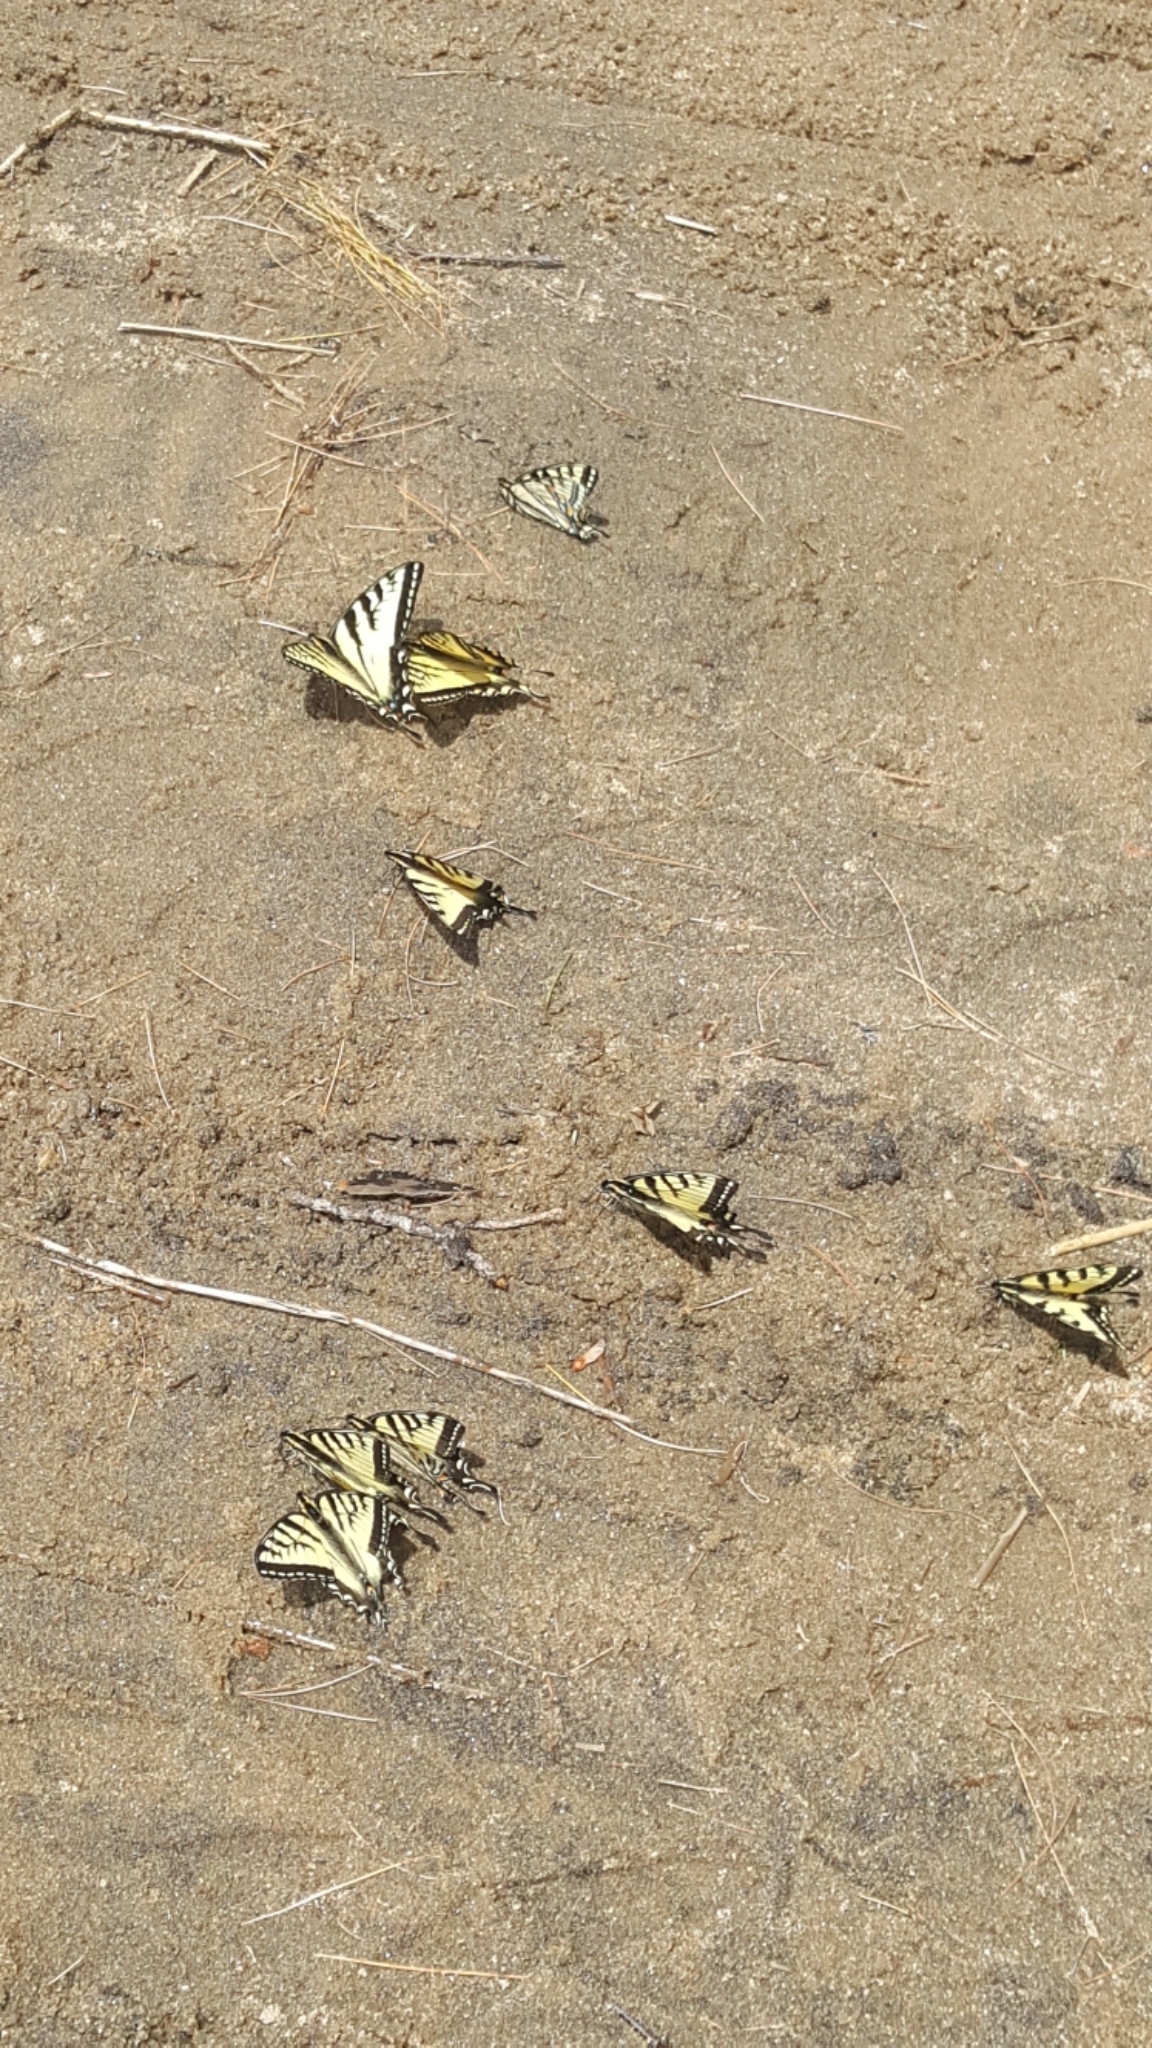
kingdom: Animalia
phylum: Arthropoda
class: Insecta
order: Lepidoptera
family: Papilionidae
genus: Papilio
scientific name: Papilio canadensis
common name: Canadian tiger swallowtail
